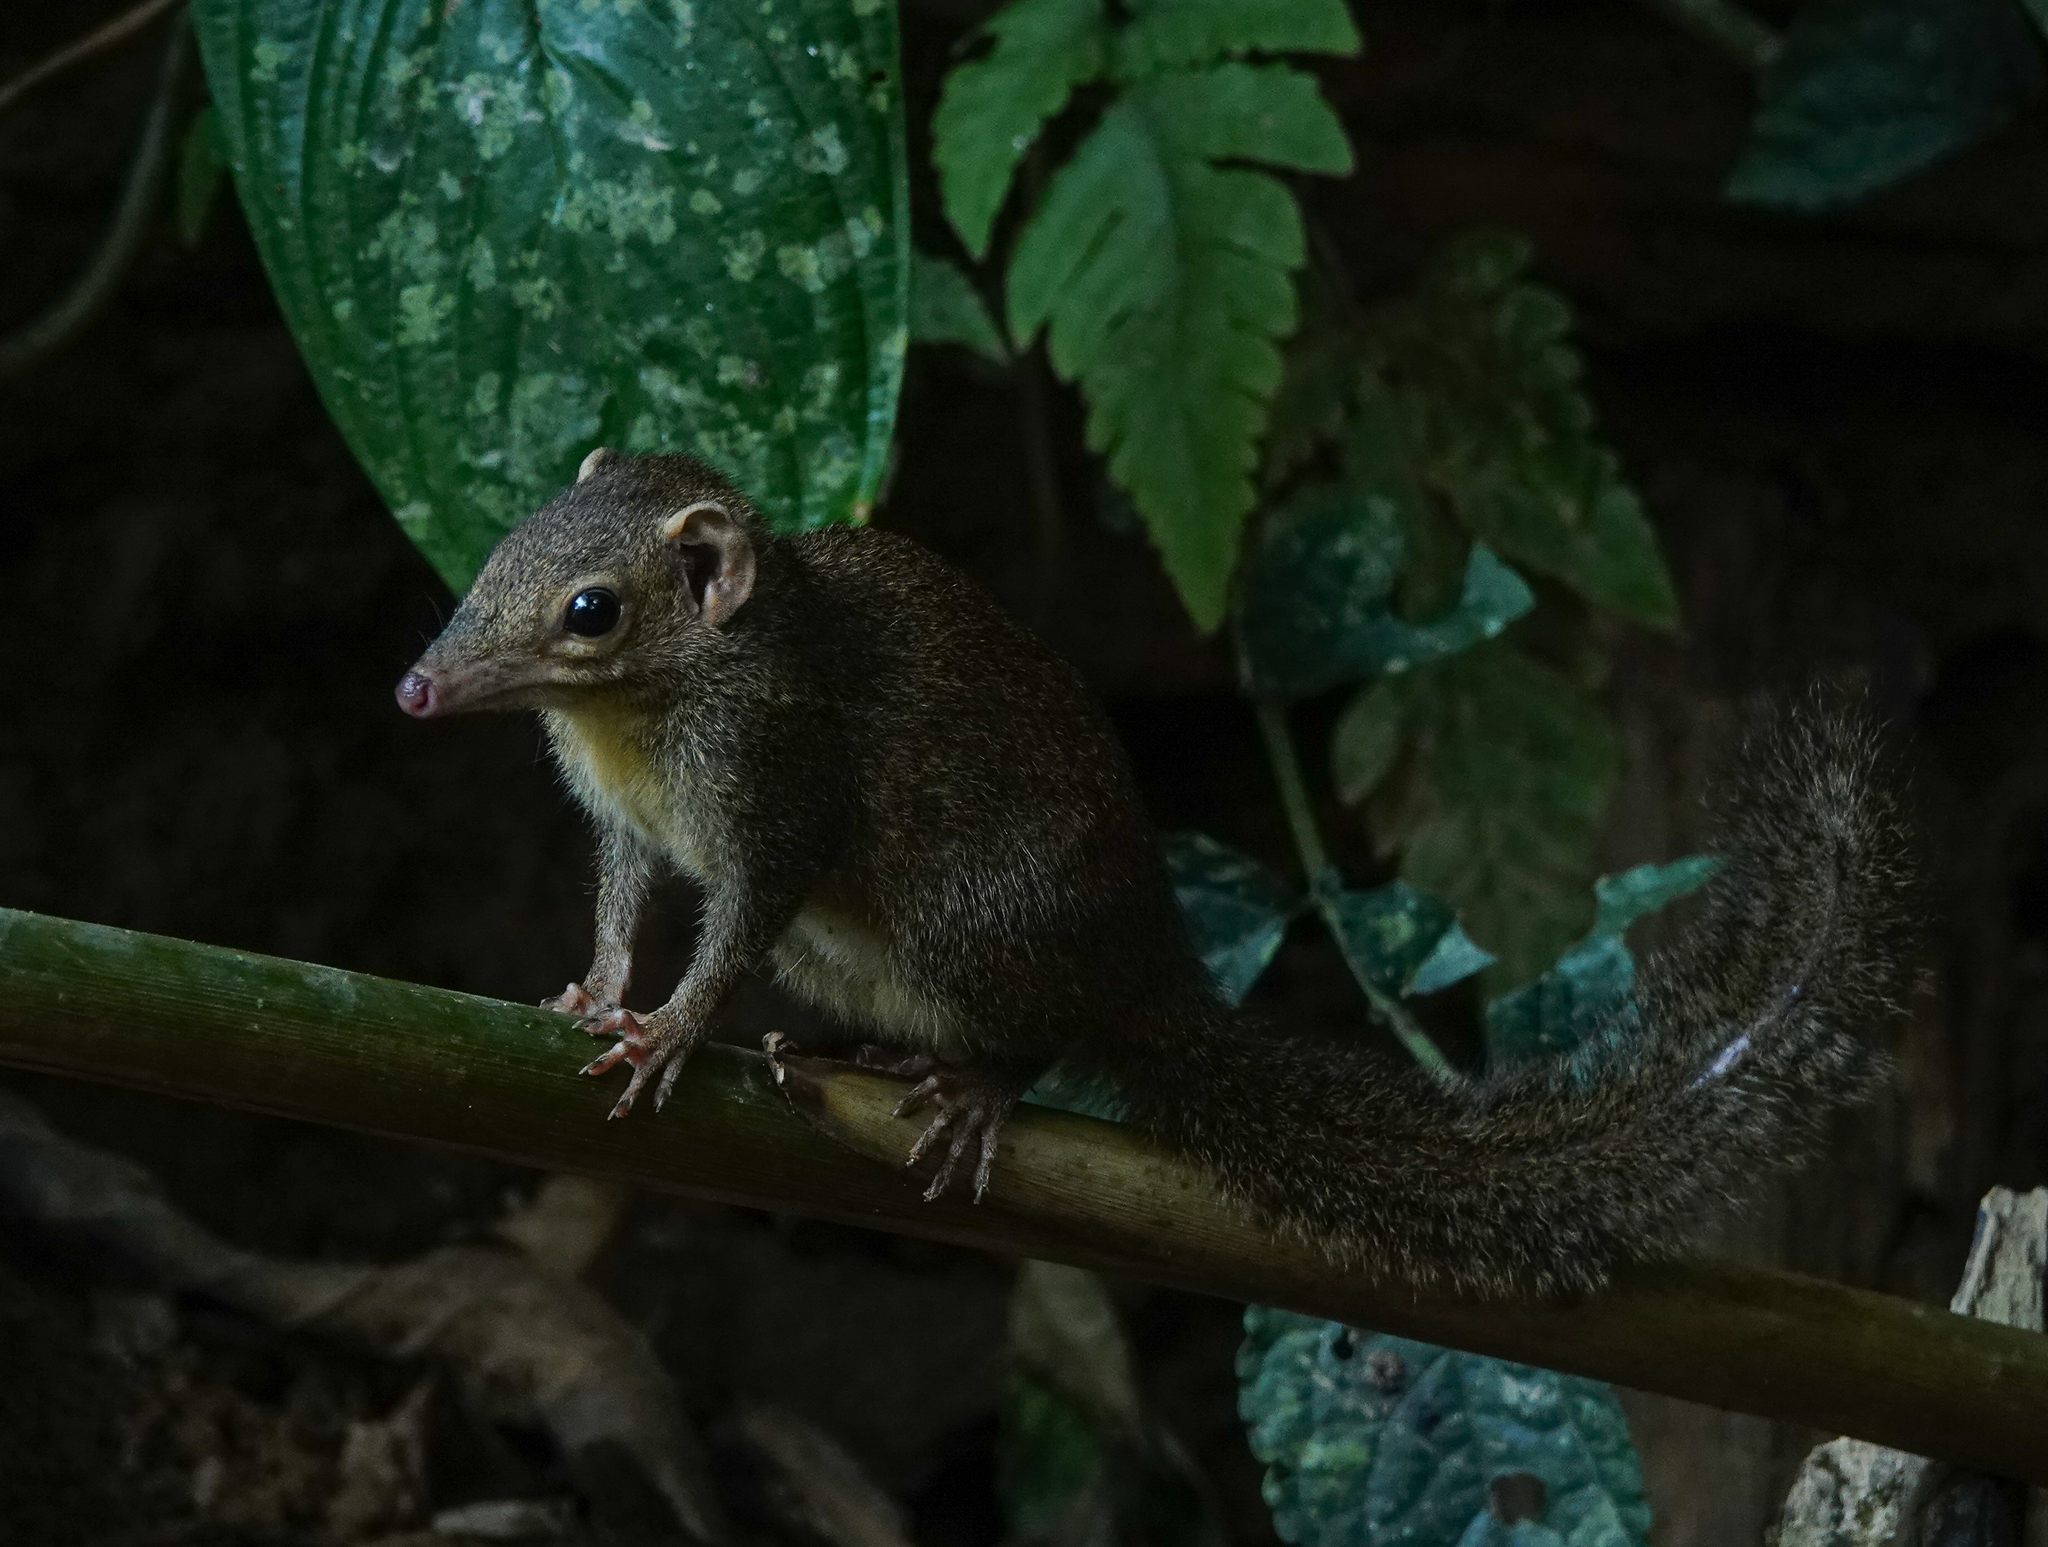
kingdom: Animalia
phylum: Chordata
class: Mammalia
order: Scandentia
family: Tupaiidae
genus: Tupaia
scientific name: Tupaia belangeri
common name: Northern treeshrew
